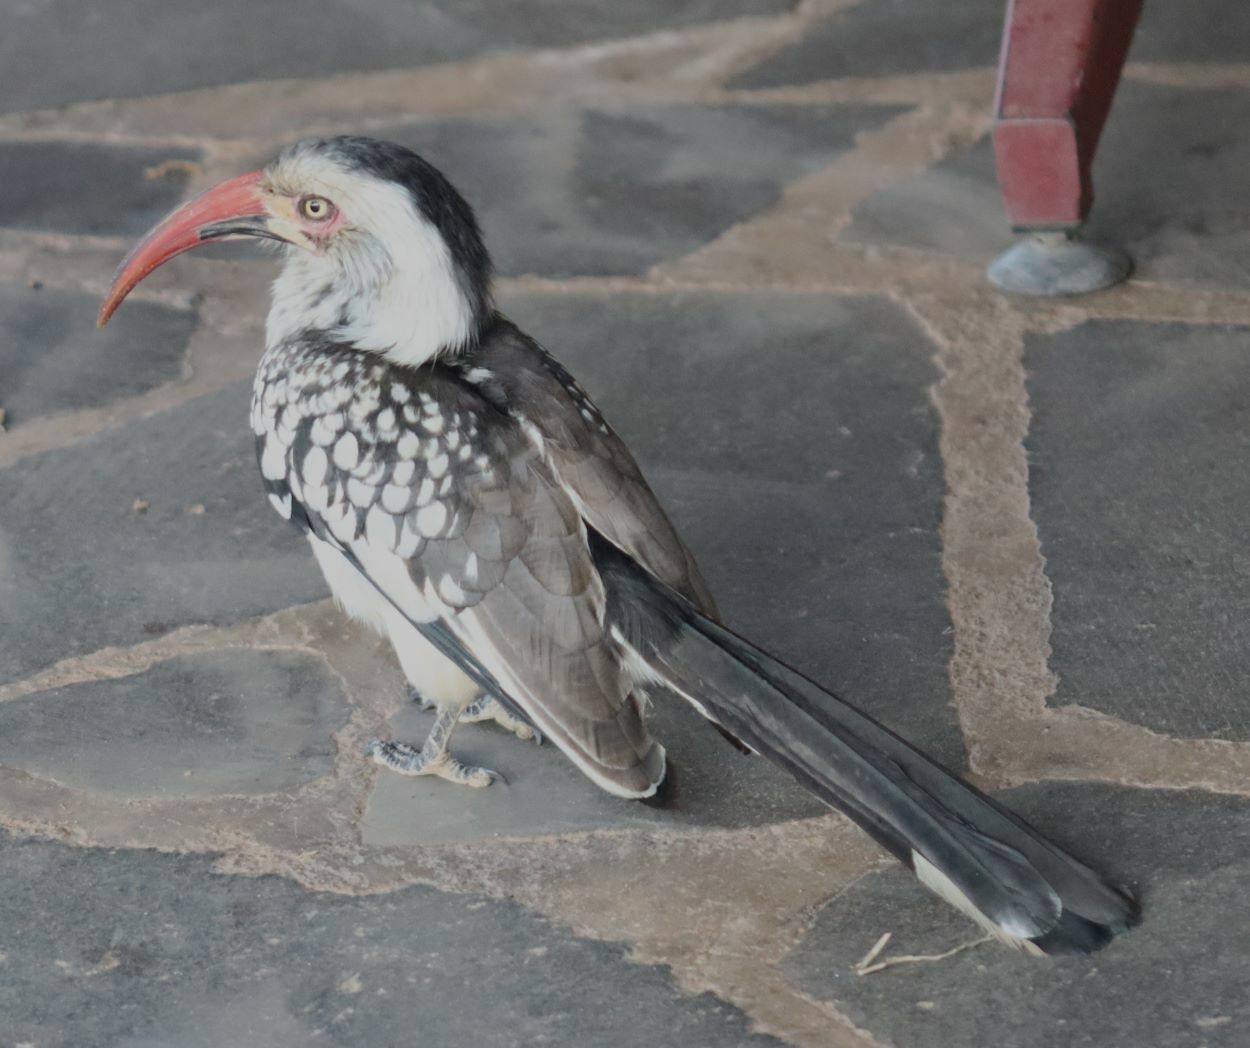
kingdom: Animalia
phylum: Chordata
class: Aves
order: Bucerotiformes
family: Bucerotidae
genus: Tockus
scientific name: Tockus rufirostris
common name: Southern red-billed hornbill
